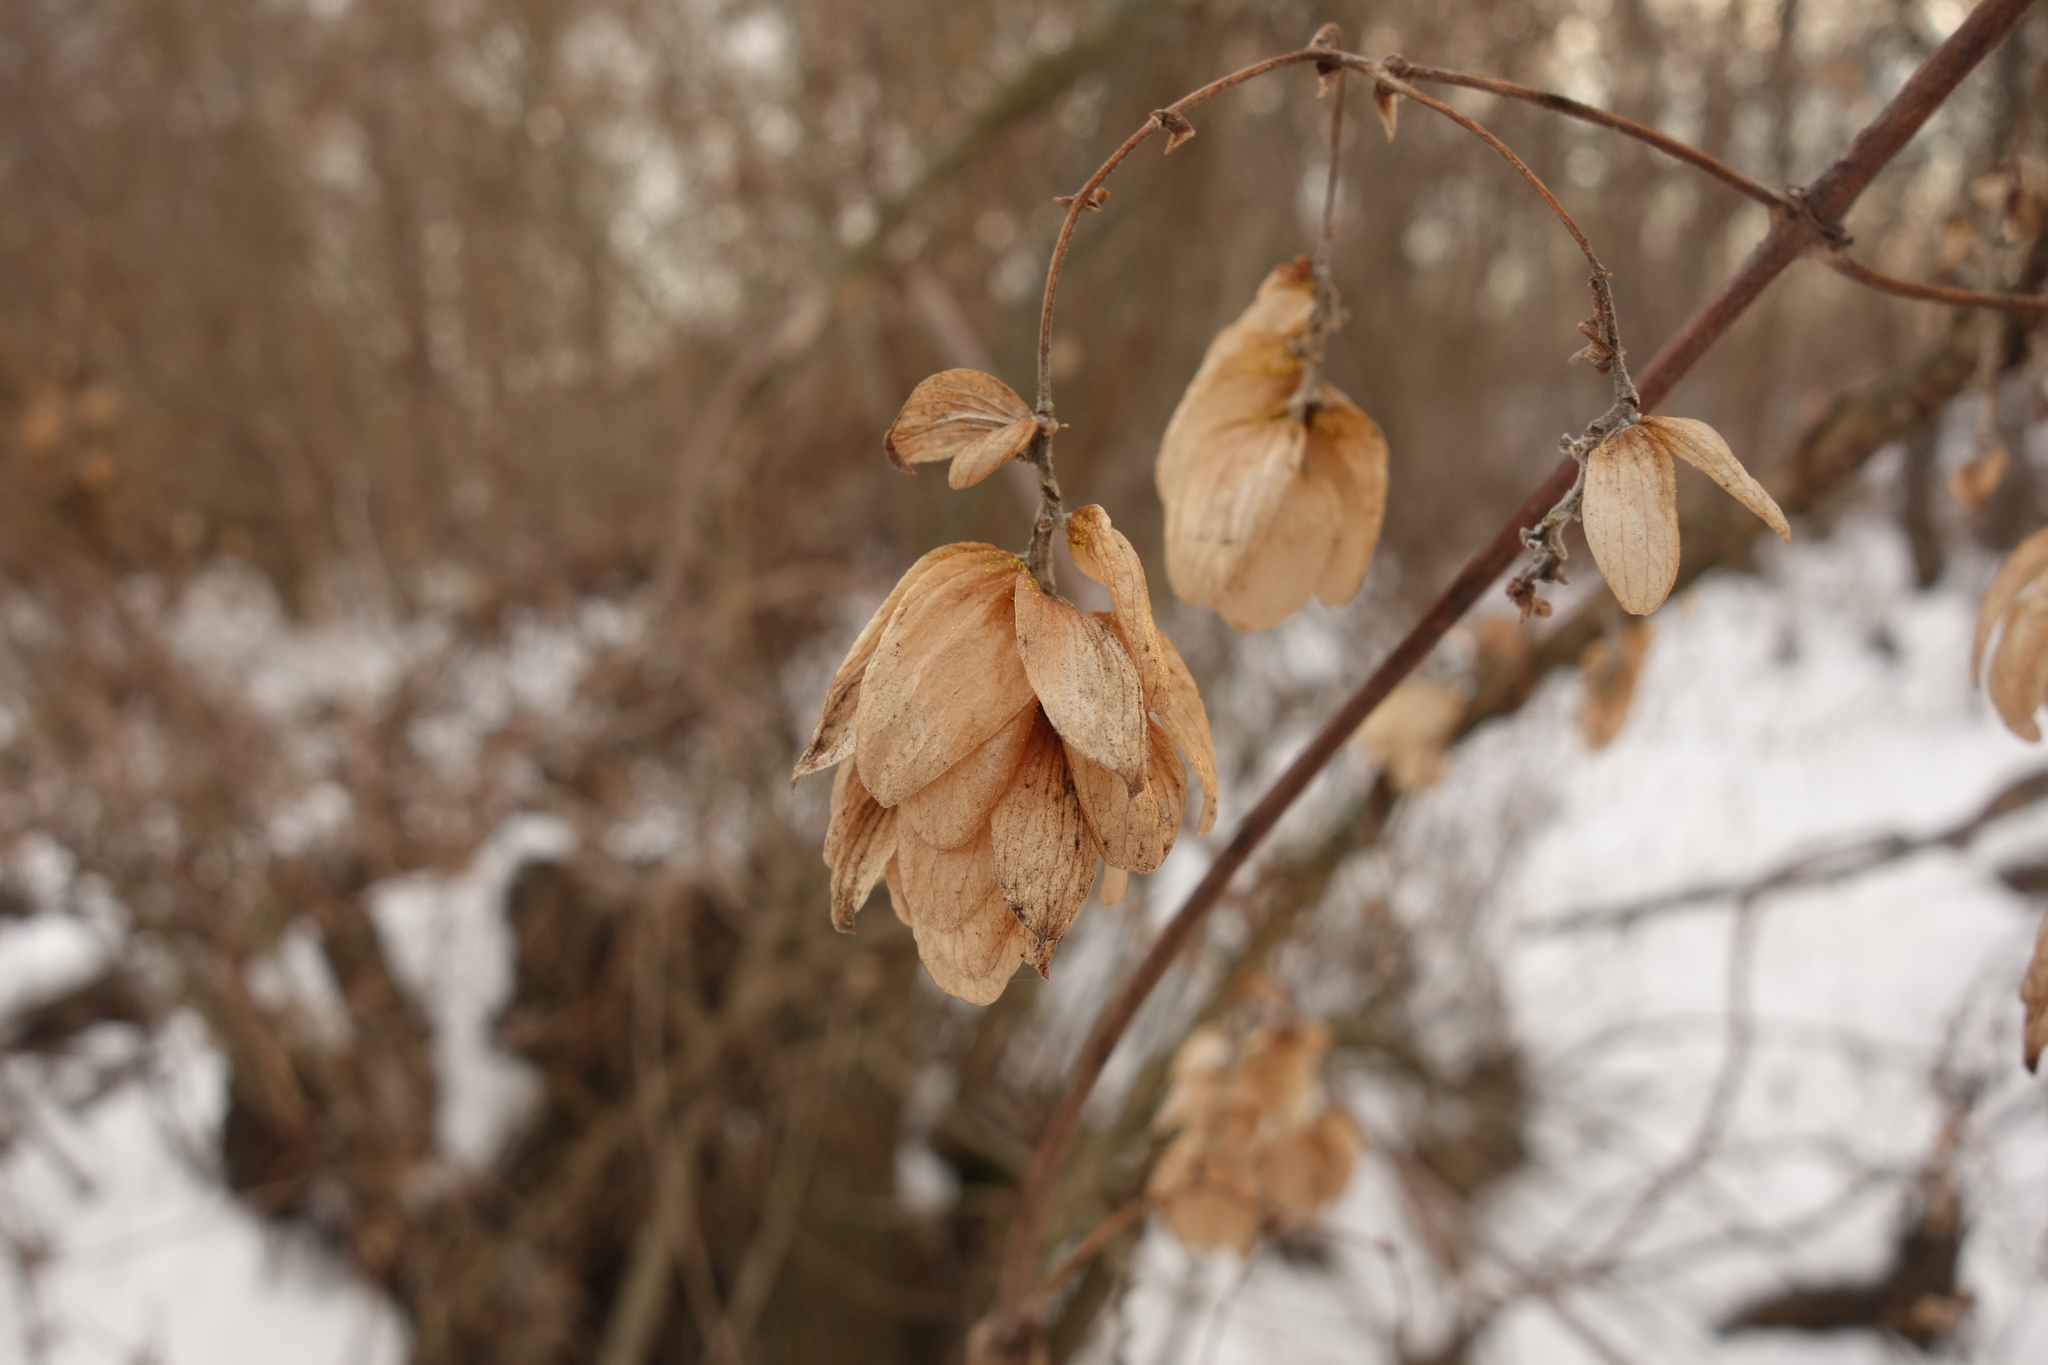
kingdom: Plantae
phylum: Tracheophyta
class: Magnoliopsida
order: Rosales
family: Cannabaceae
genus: Humulus
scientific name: Humulus lupulus
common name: Hop
